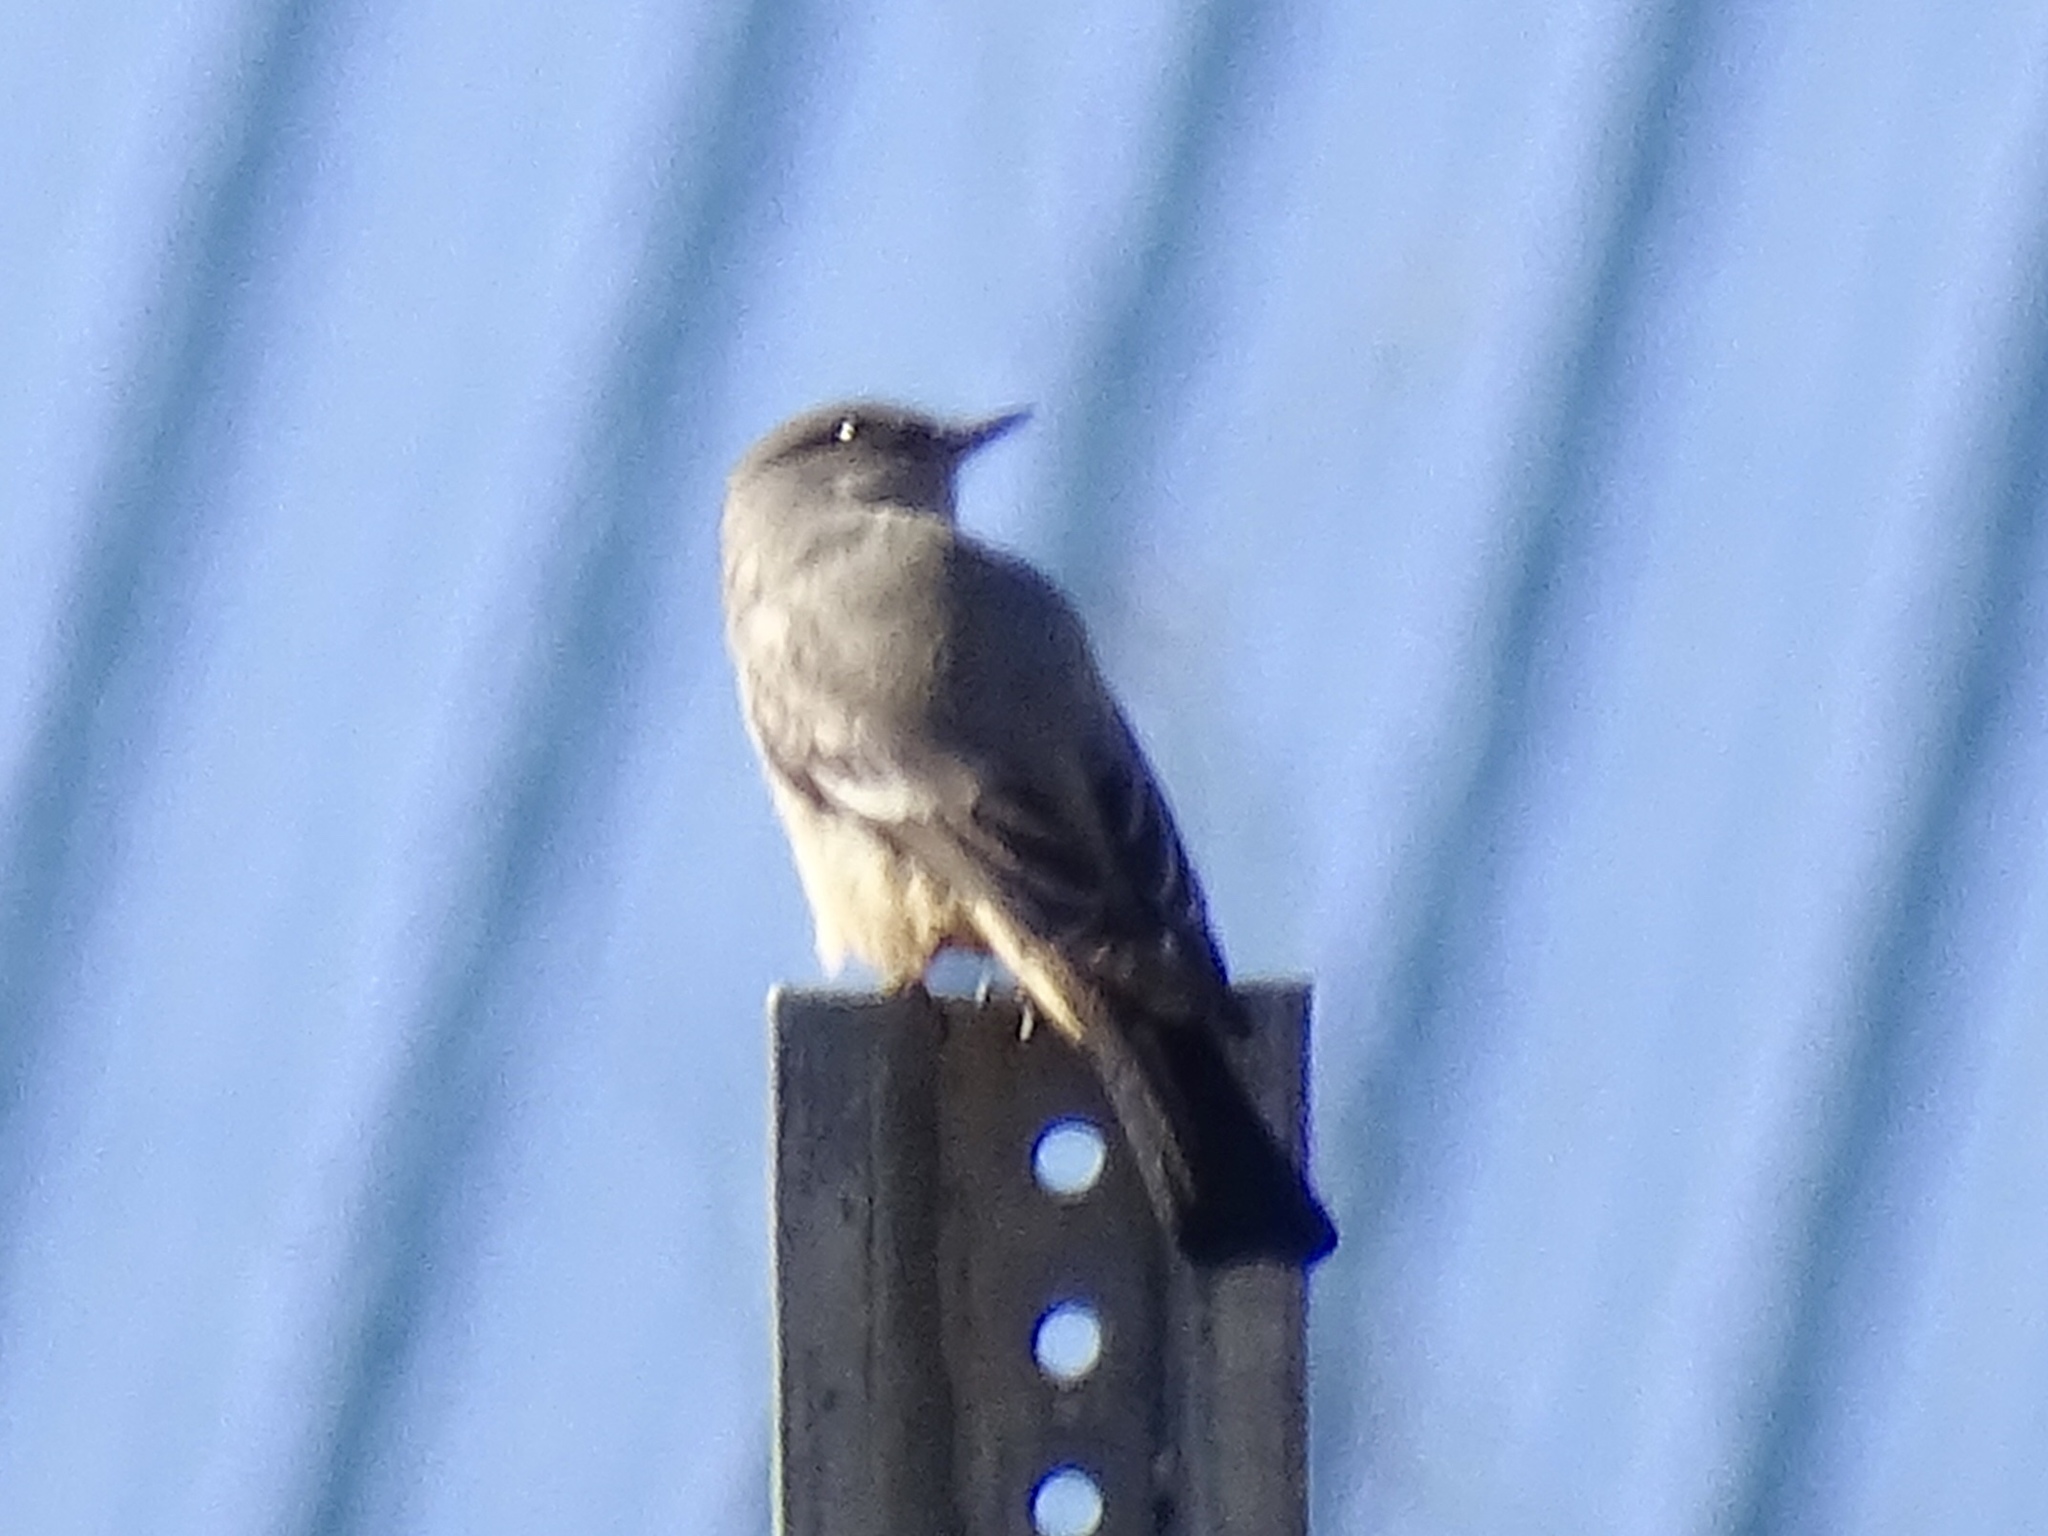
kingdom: Animalia
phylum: Chordata
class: Aves
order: Passeriformes
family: Tyrannidae
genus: Sayornis
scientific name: Sayornis saya
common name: Say's phoebe
